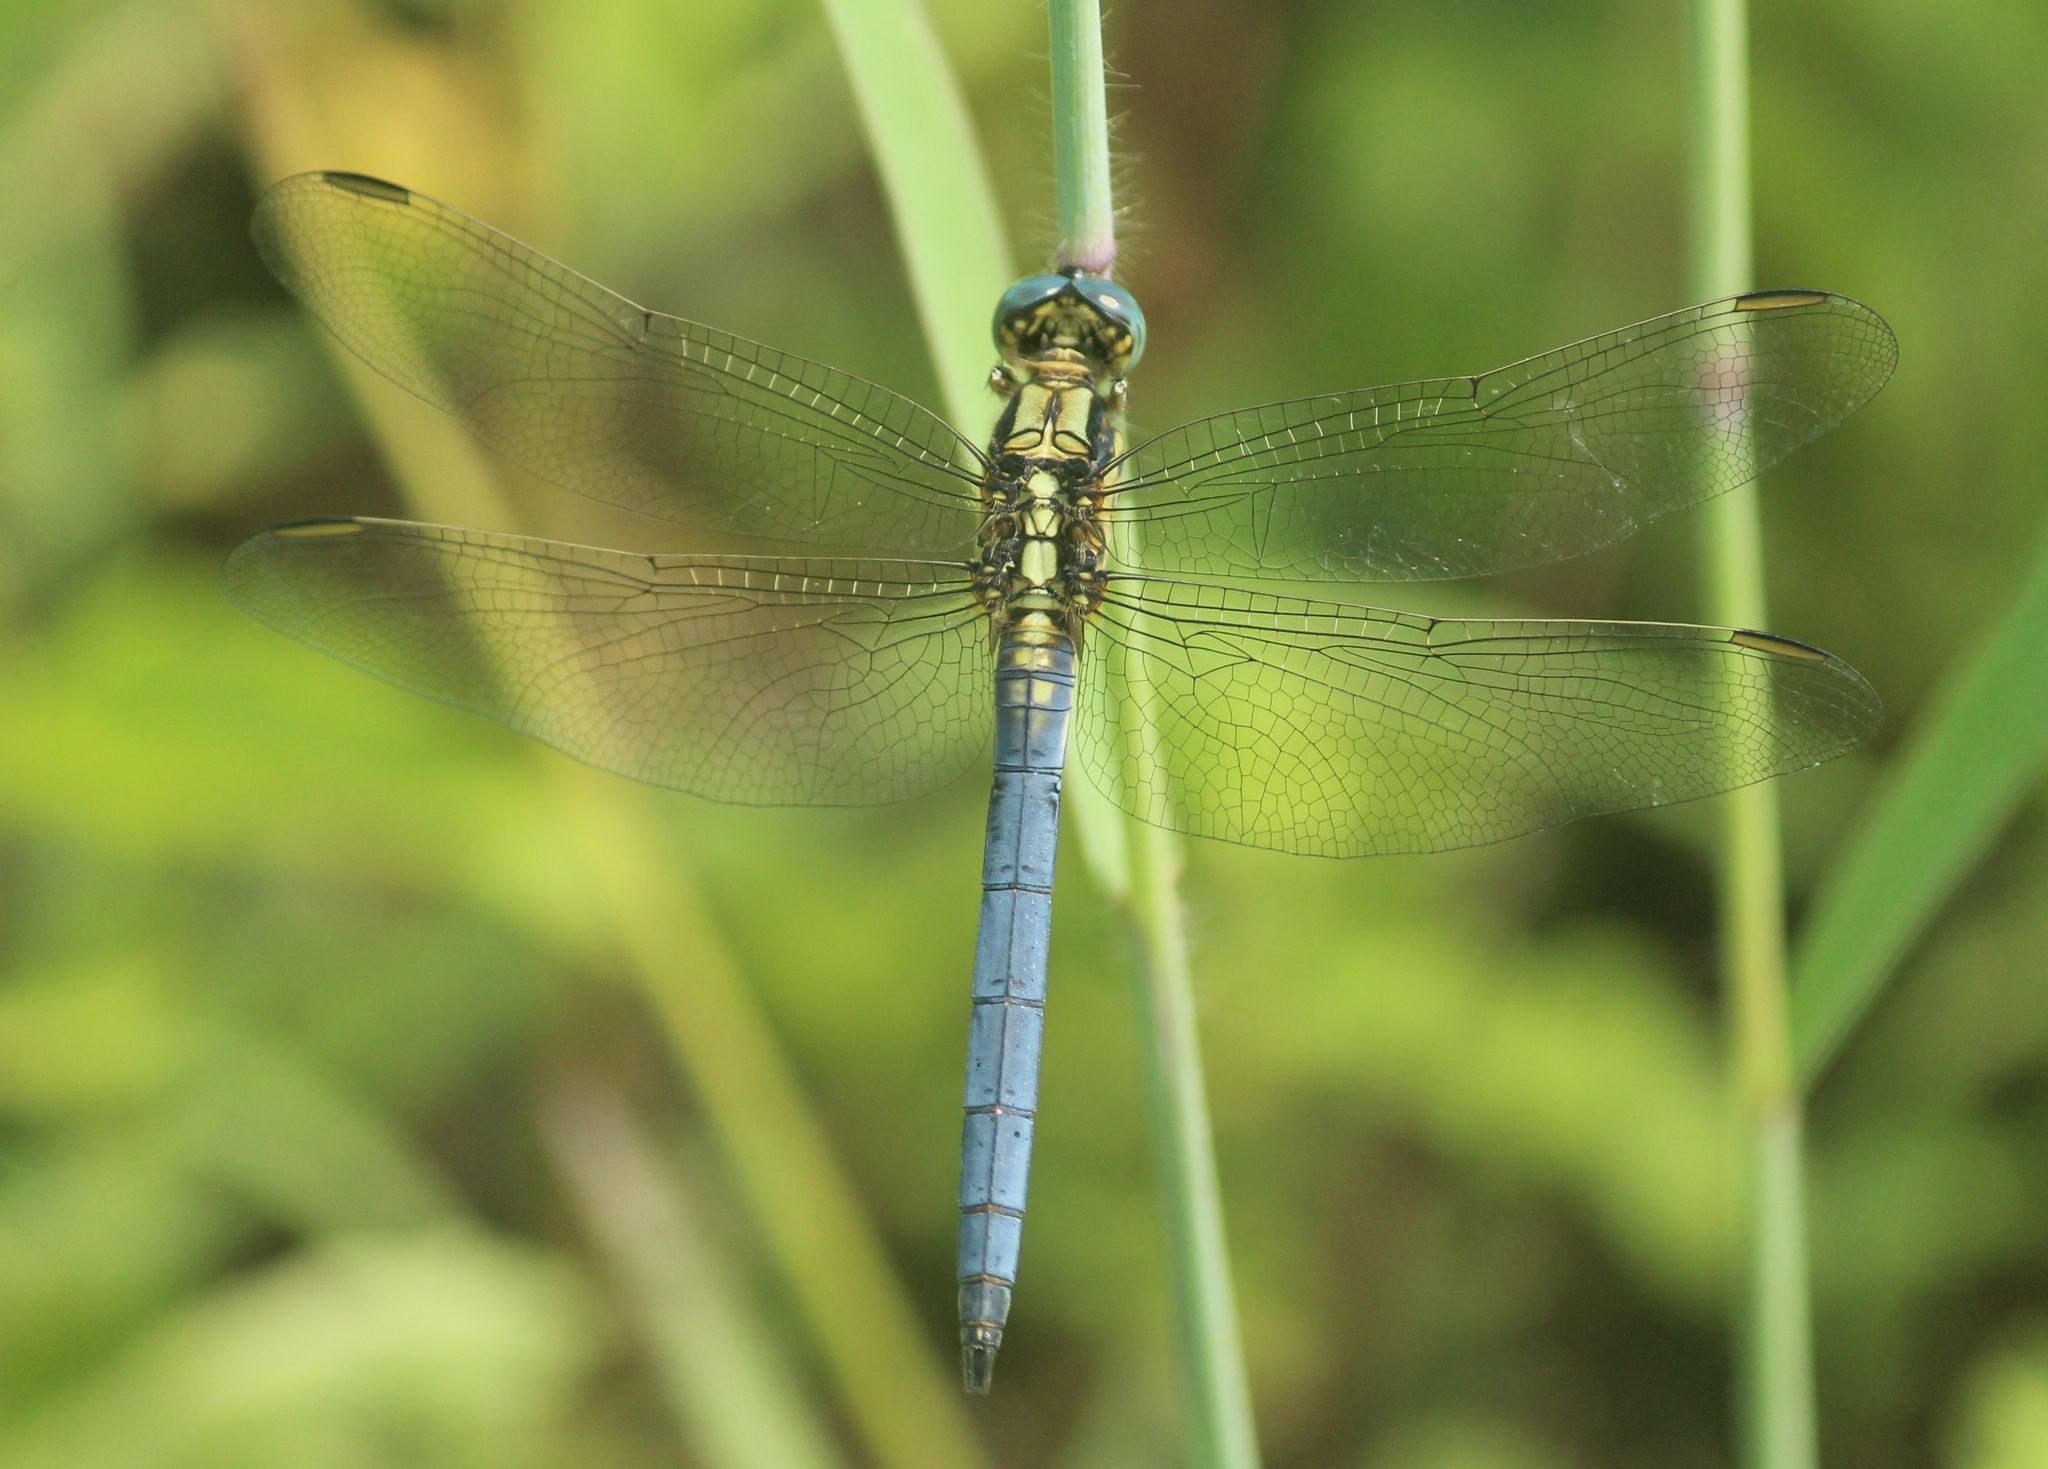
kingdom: Animalia
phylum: Arthropoda
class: Insecta
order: Odonata
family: Libellulidae
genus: Orthetrum
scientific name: Orthetrum luzonicum
